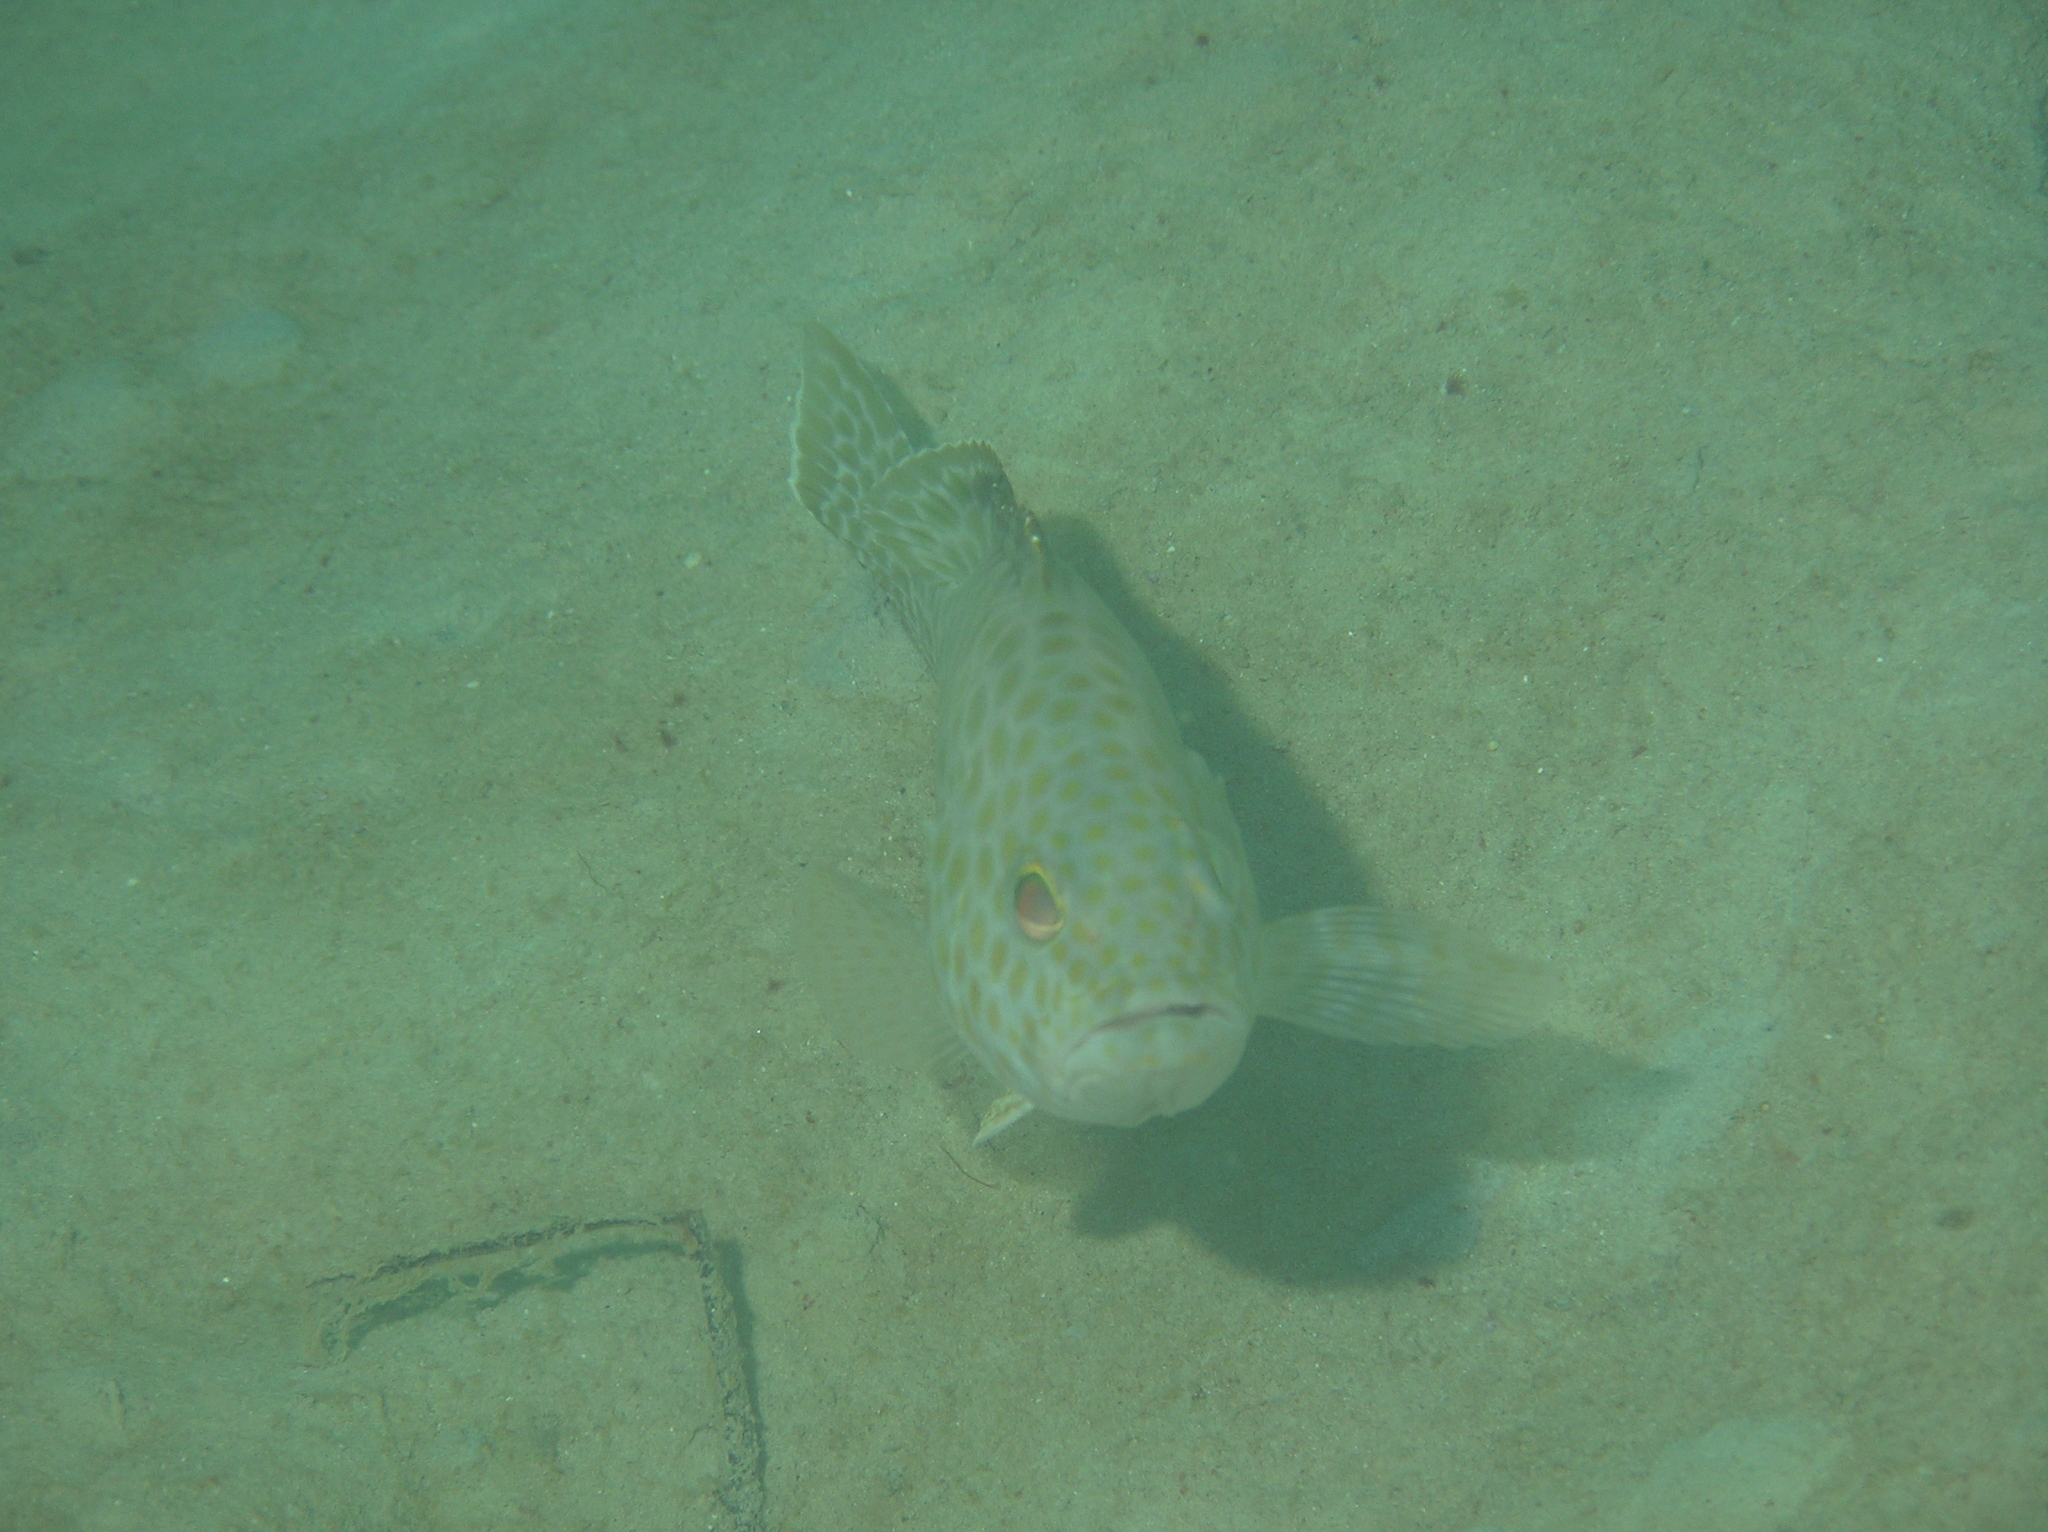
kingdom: Animalia
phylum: Chordata
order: Perciformes
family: Serranidae
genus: Epinephelus
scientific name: Epinephelus areolatus
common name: Areolate grouper
